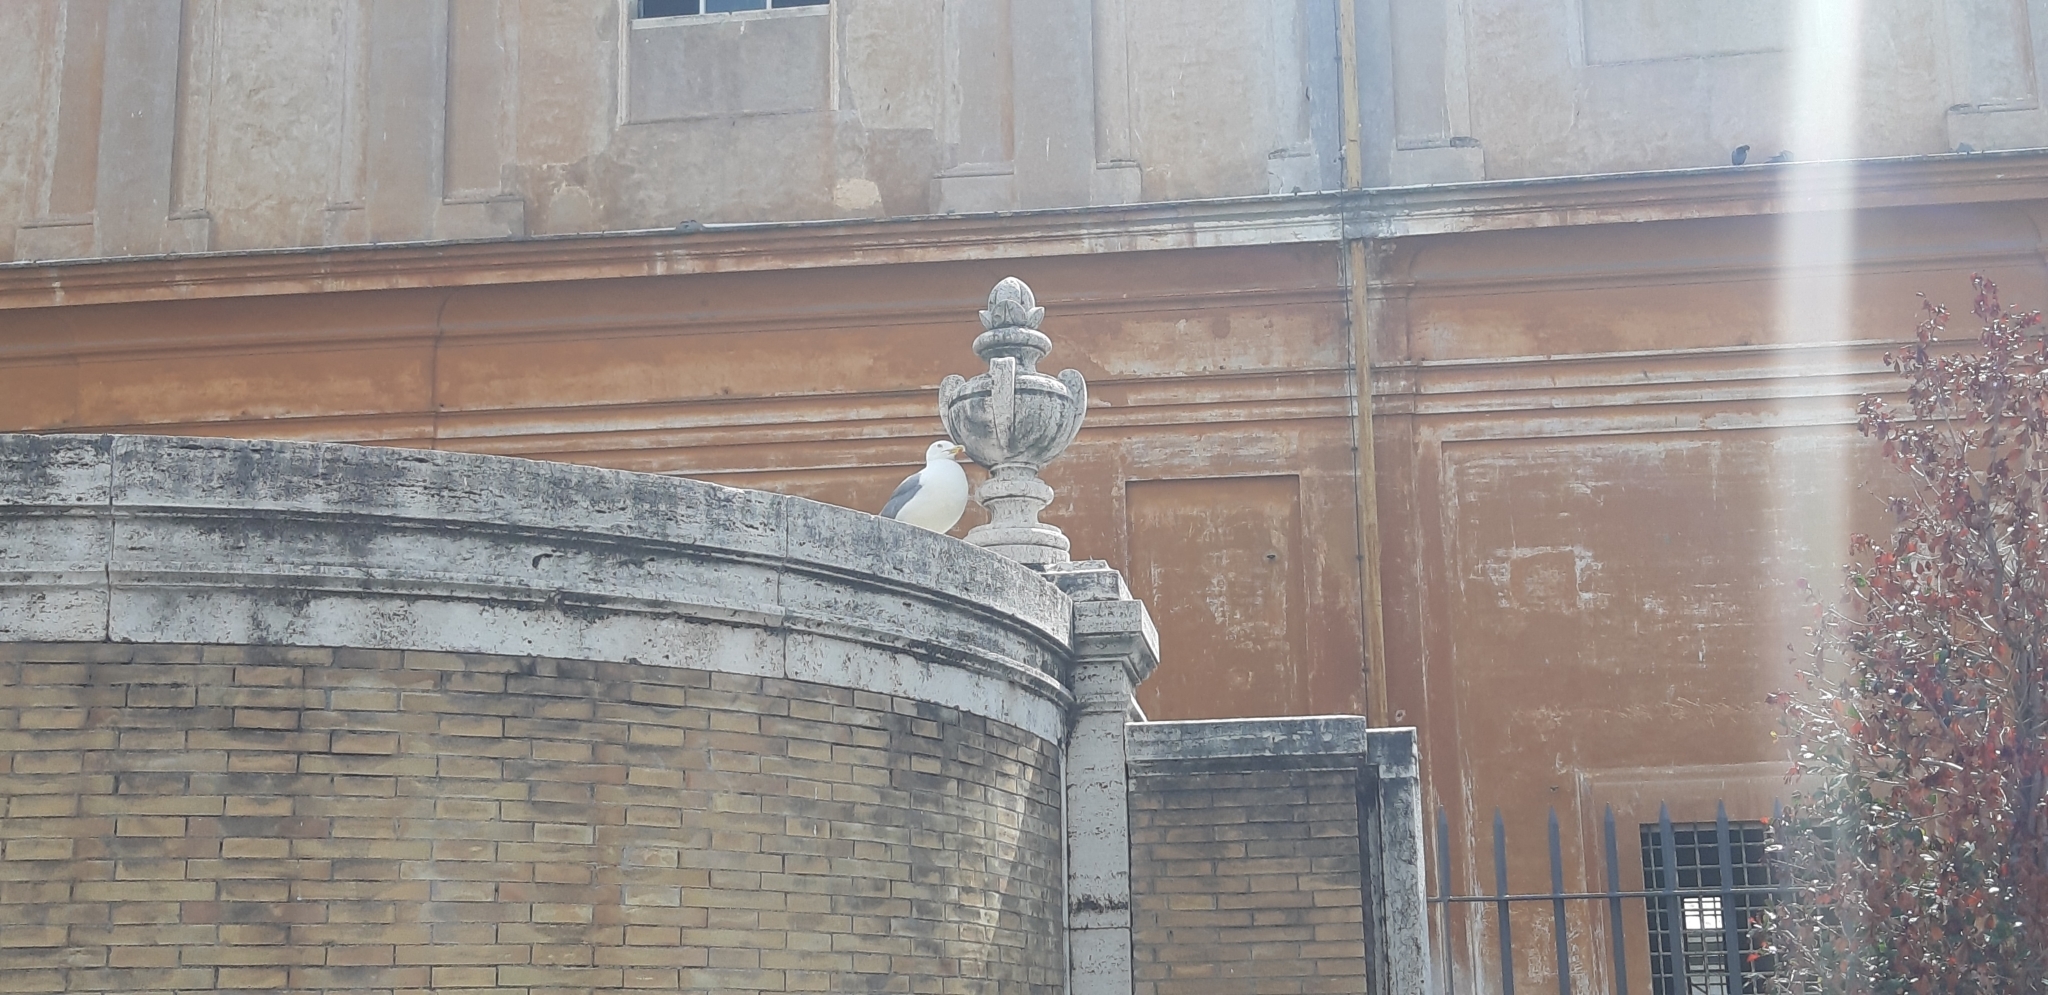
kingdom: Animalia
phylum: Chordata
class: Aves
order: Charadriiformes
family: Laridae
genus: Larus
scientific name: Larus michahellis
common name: Yellow-legged gull
